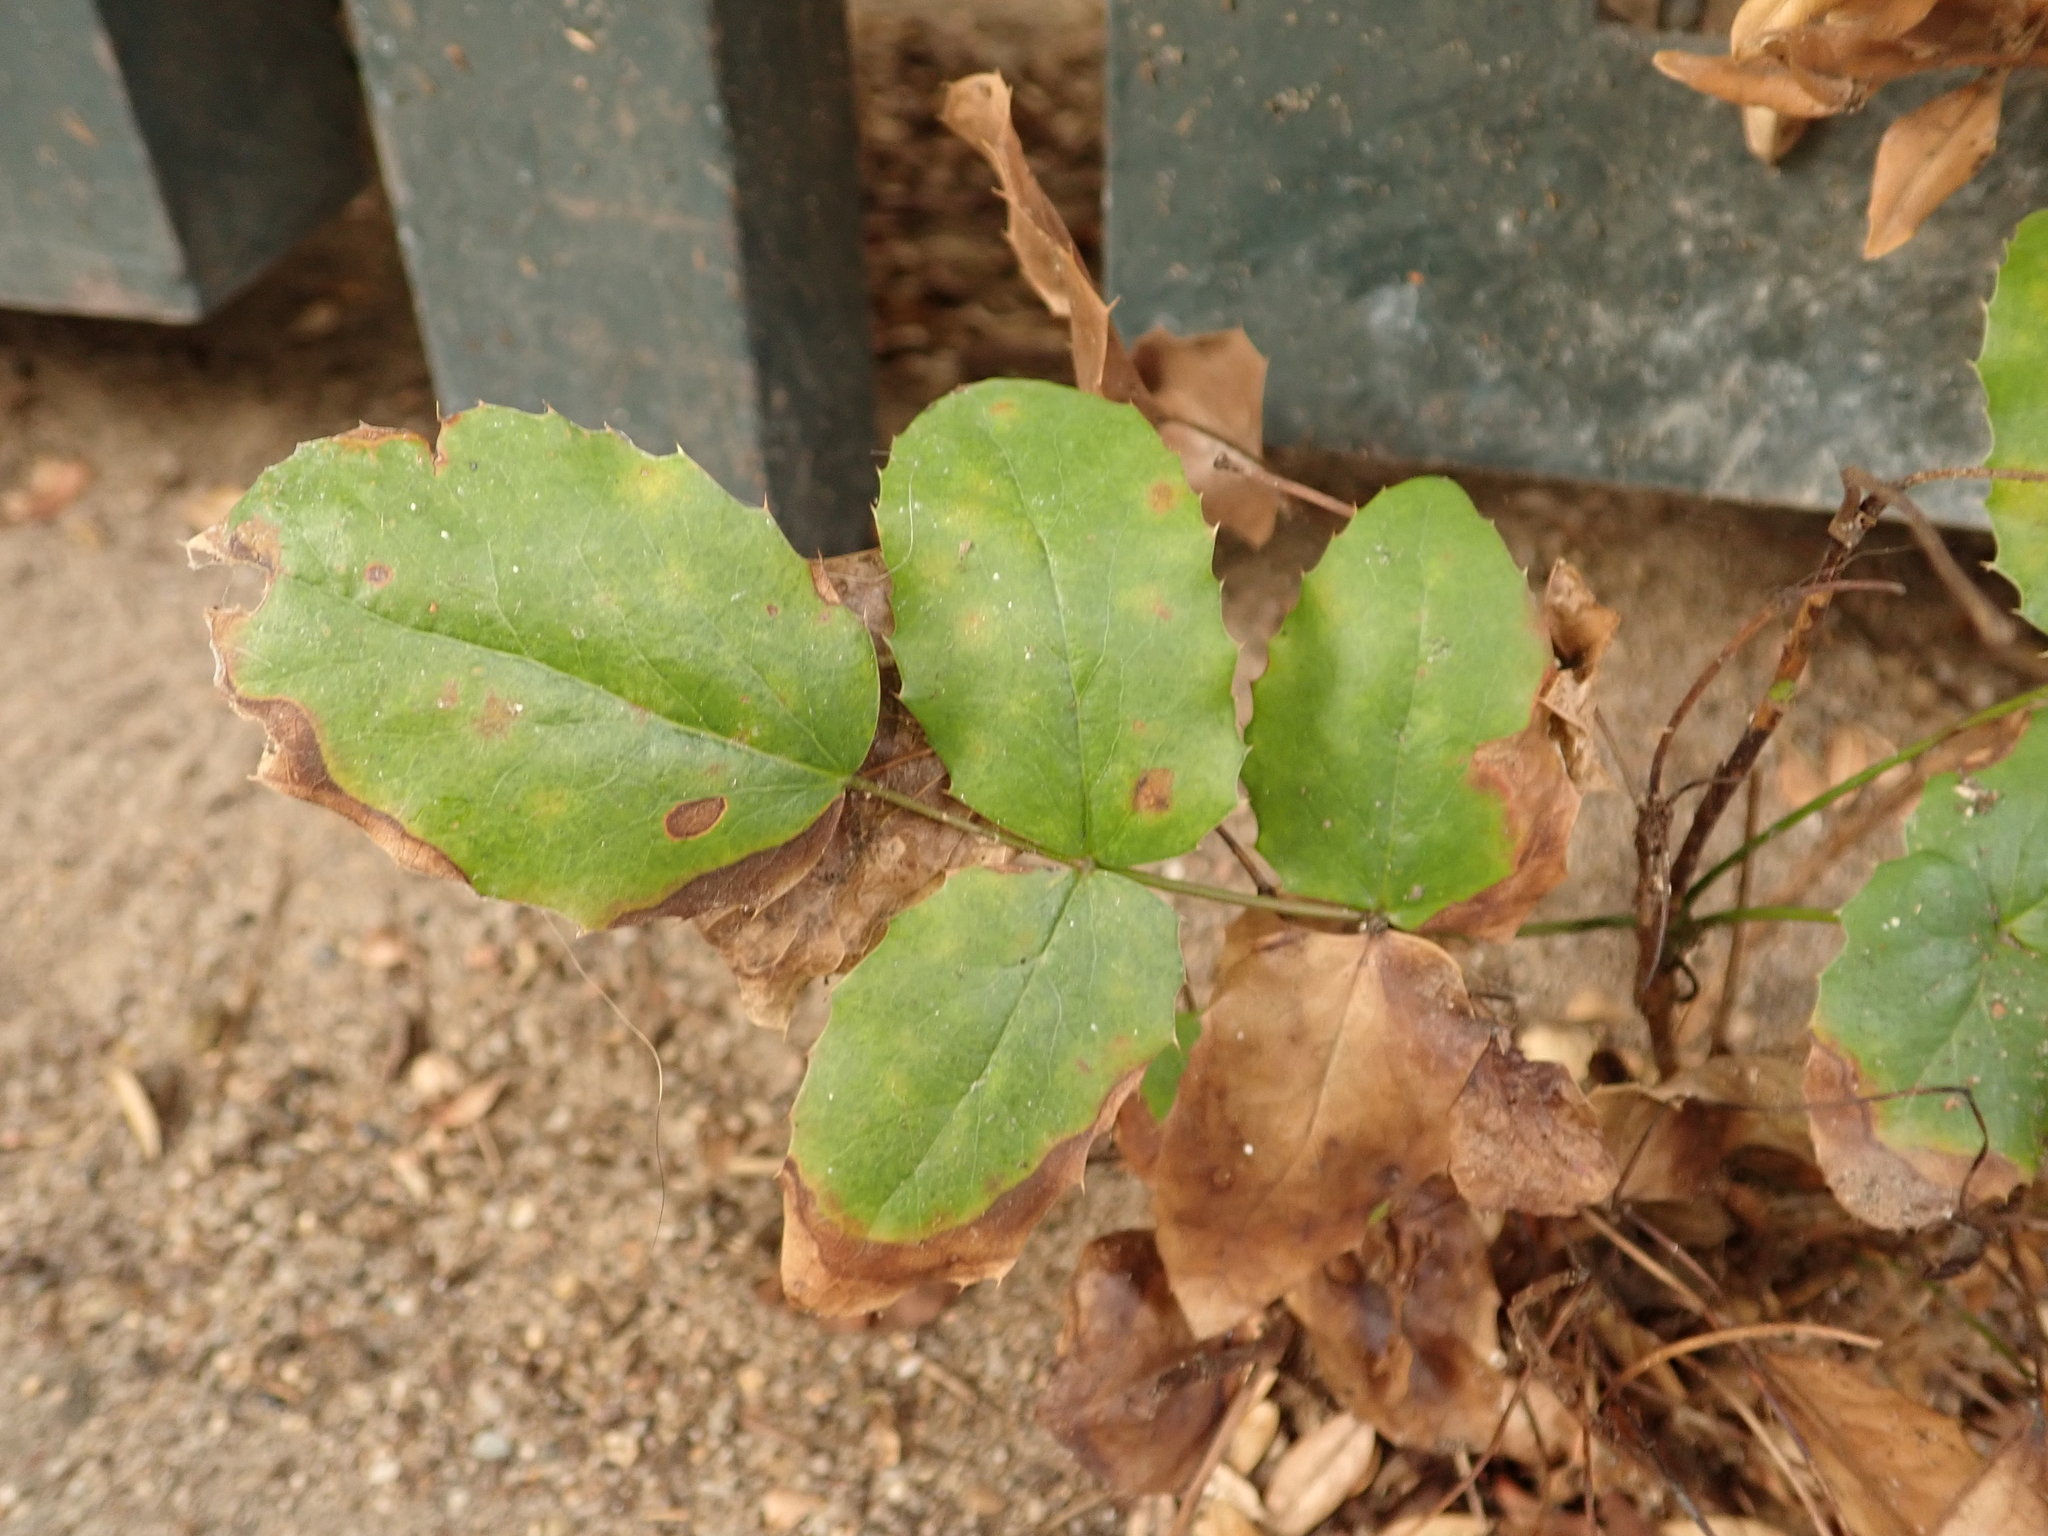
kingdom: Plantae
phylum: Tracheophyta
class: Magnoliopsida
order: Ranunculales
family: Berberidaceae
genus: Mahonia
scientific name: Mahonia aquifolium
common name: Oregon-grape
